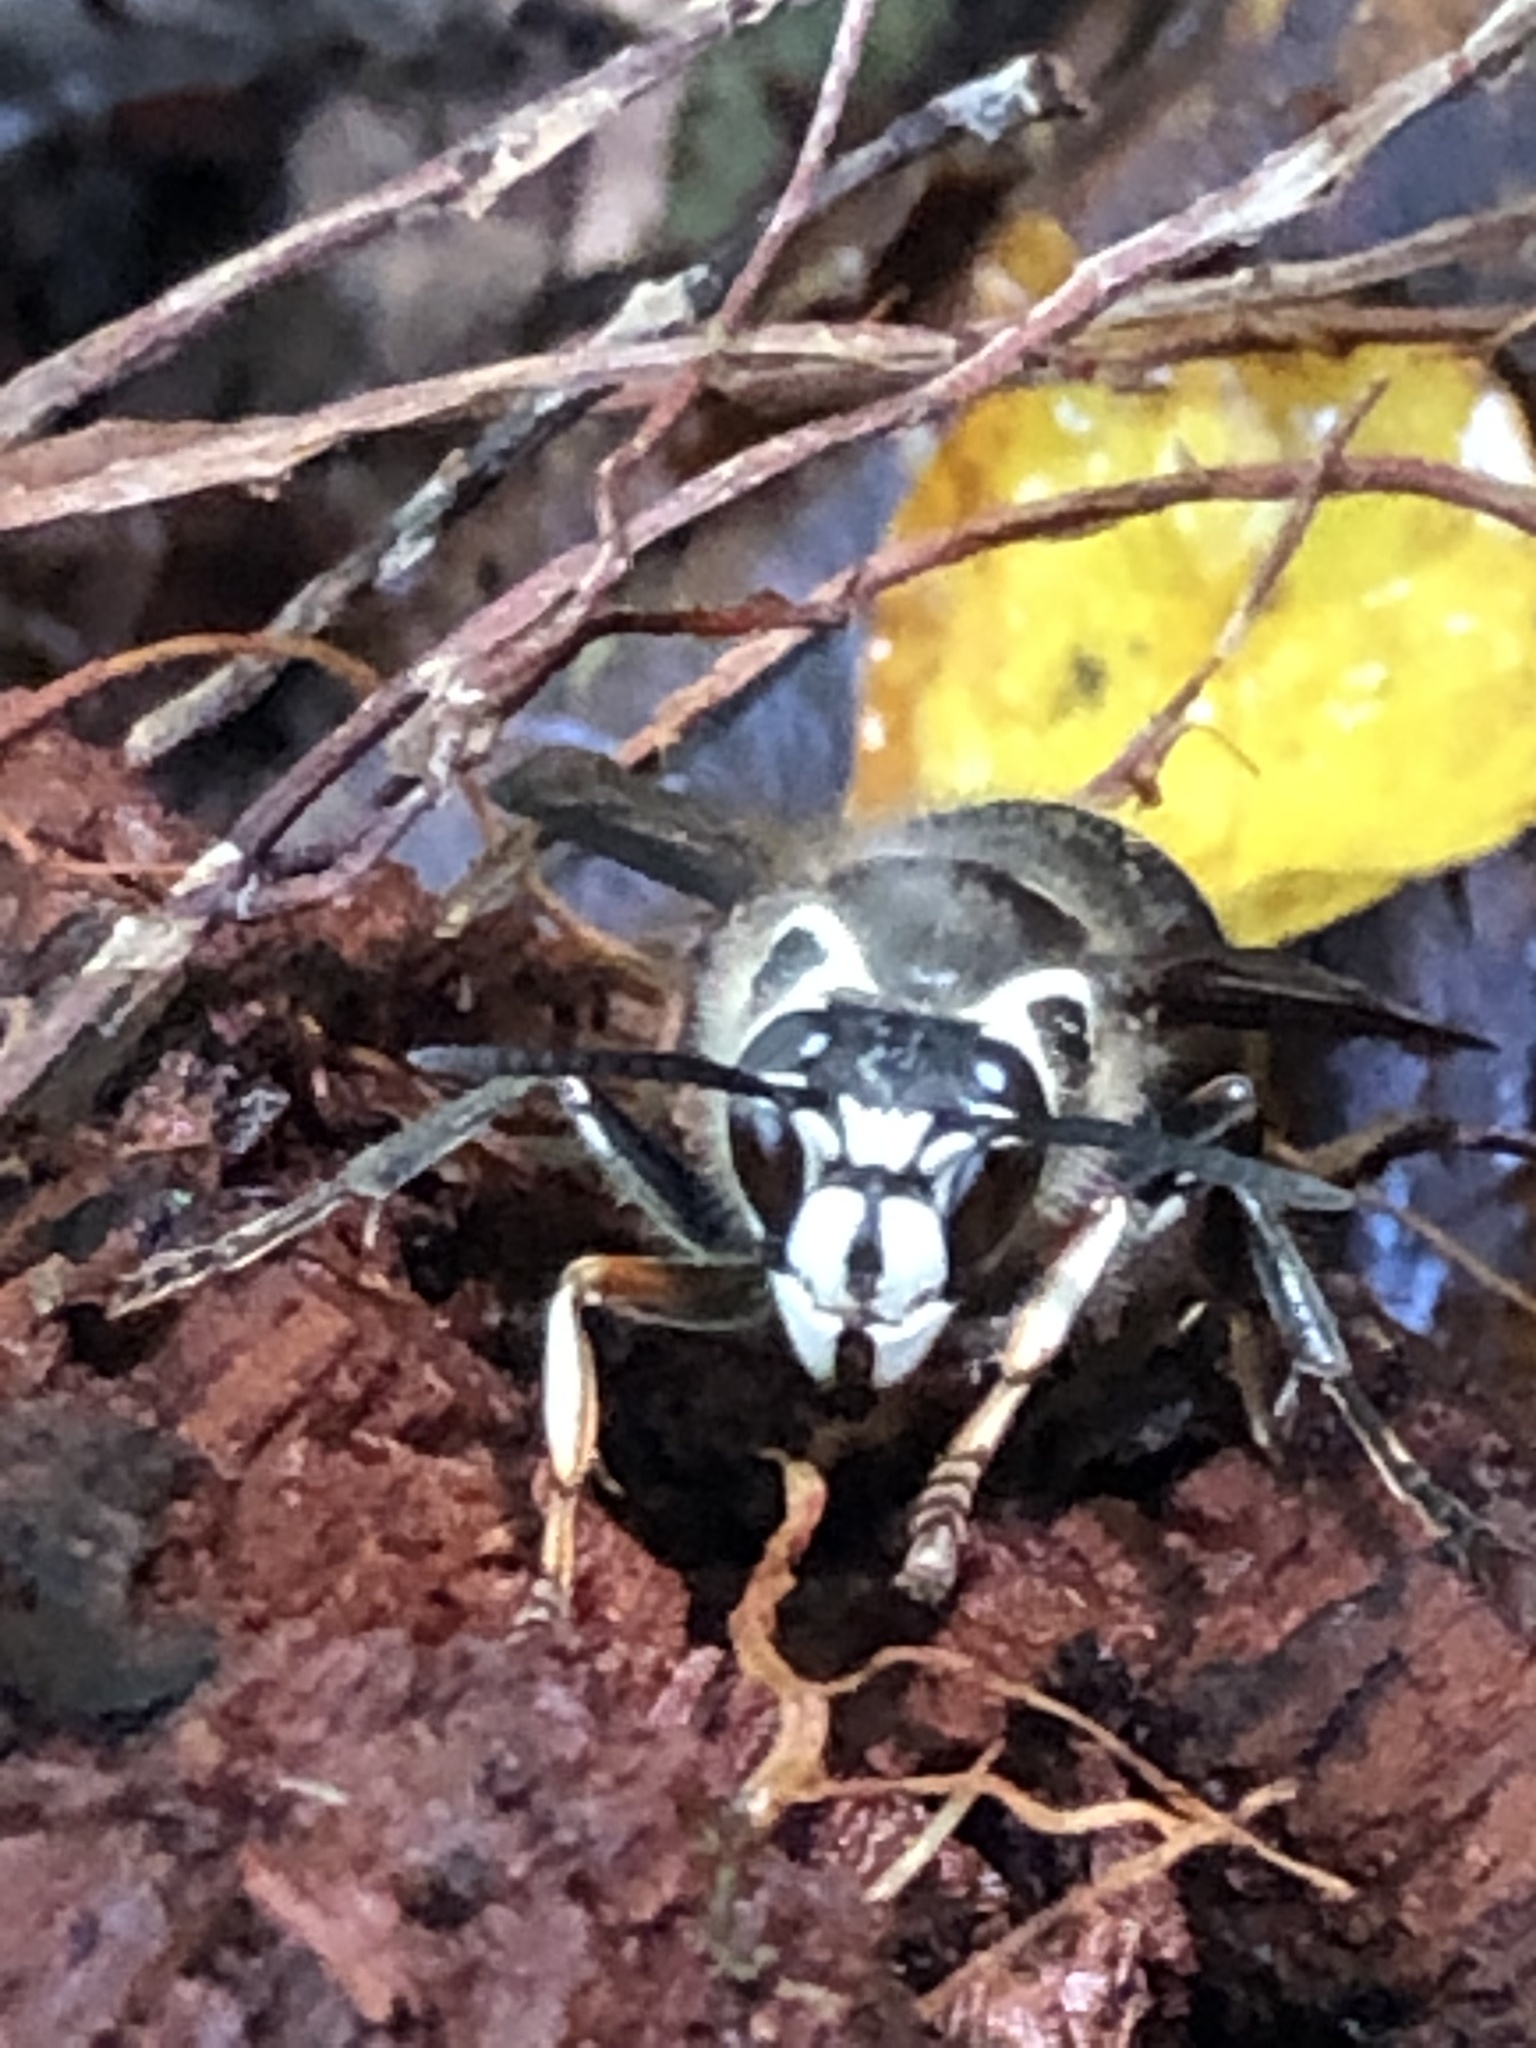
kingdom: Animalia
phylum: Arthropoda
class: Insecta
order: Hymenoptera
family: Vespidae
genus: Dolichovespula
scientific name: Dolichovespula maculata
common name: Bald-faced hornet
